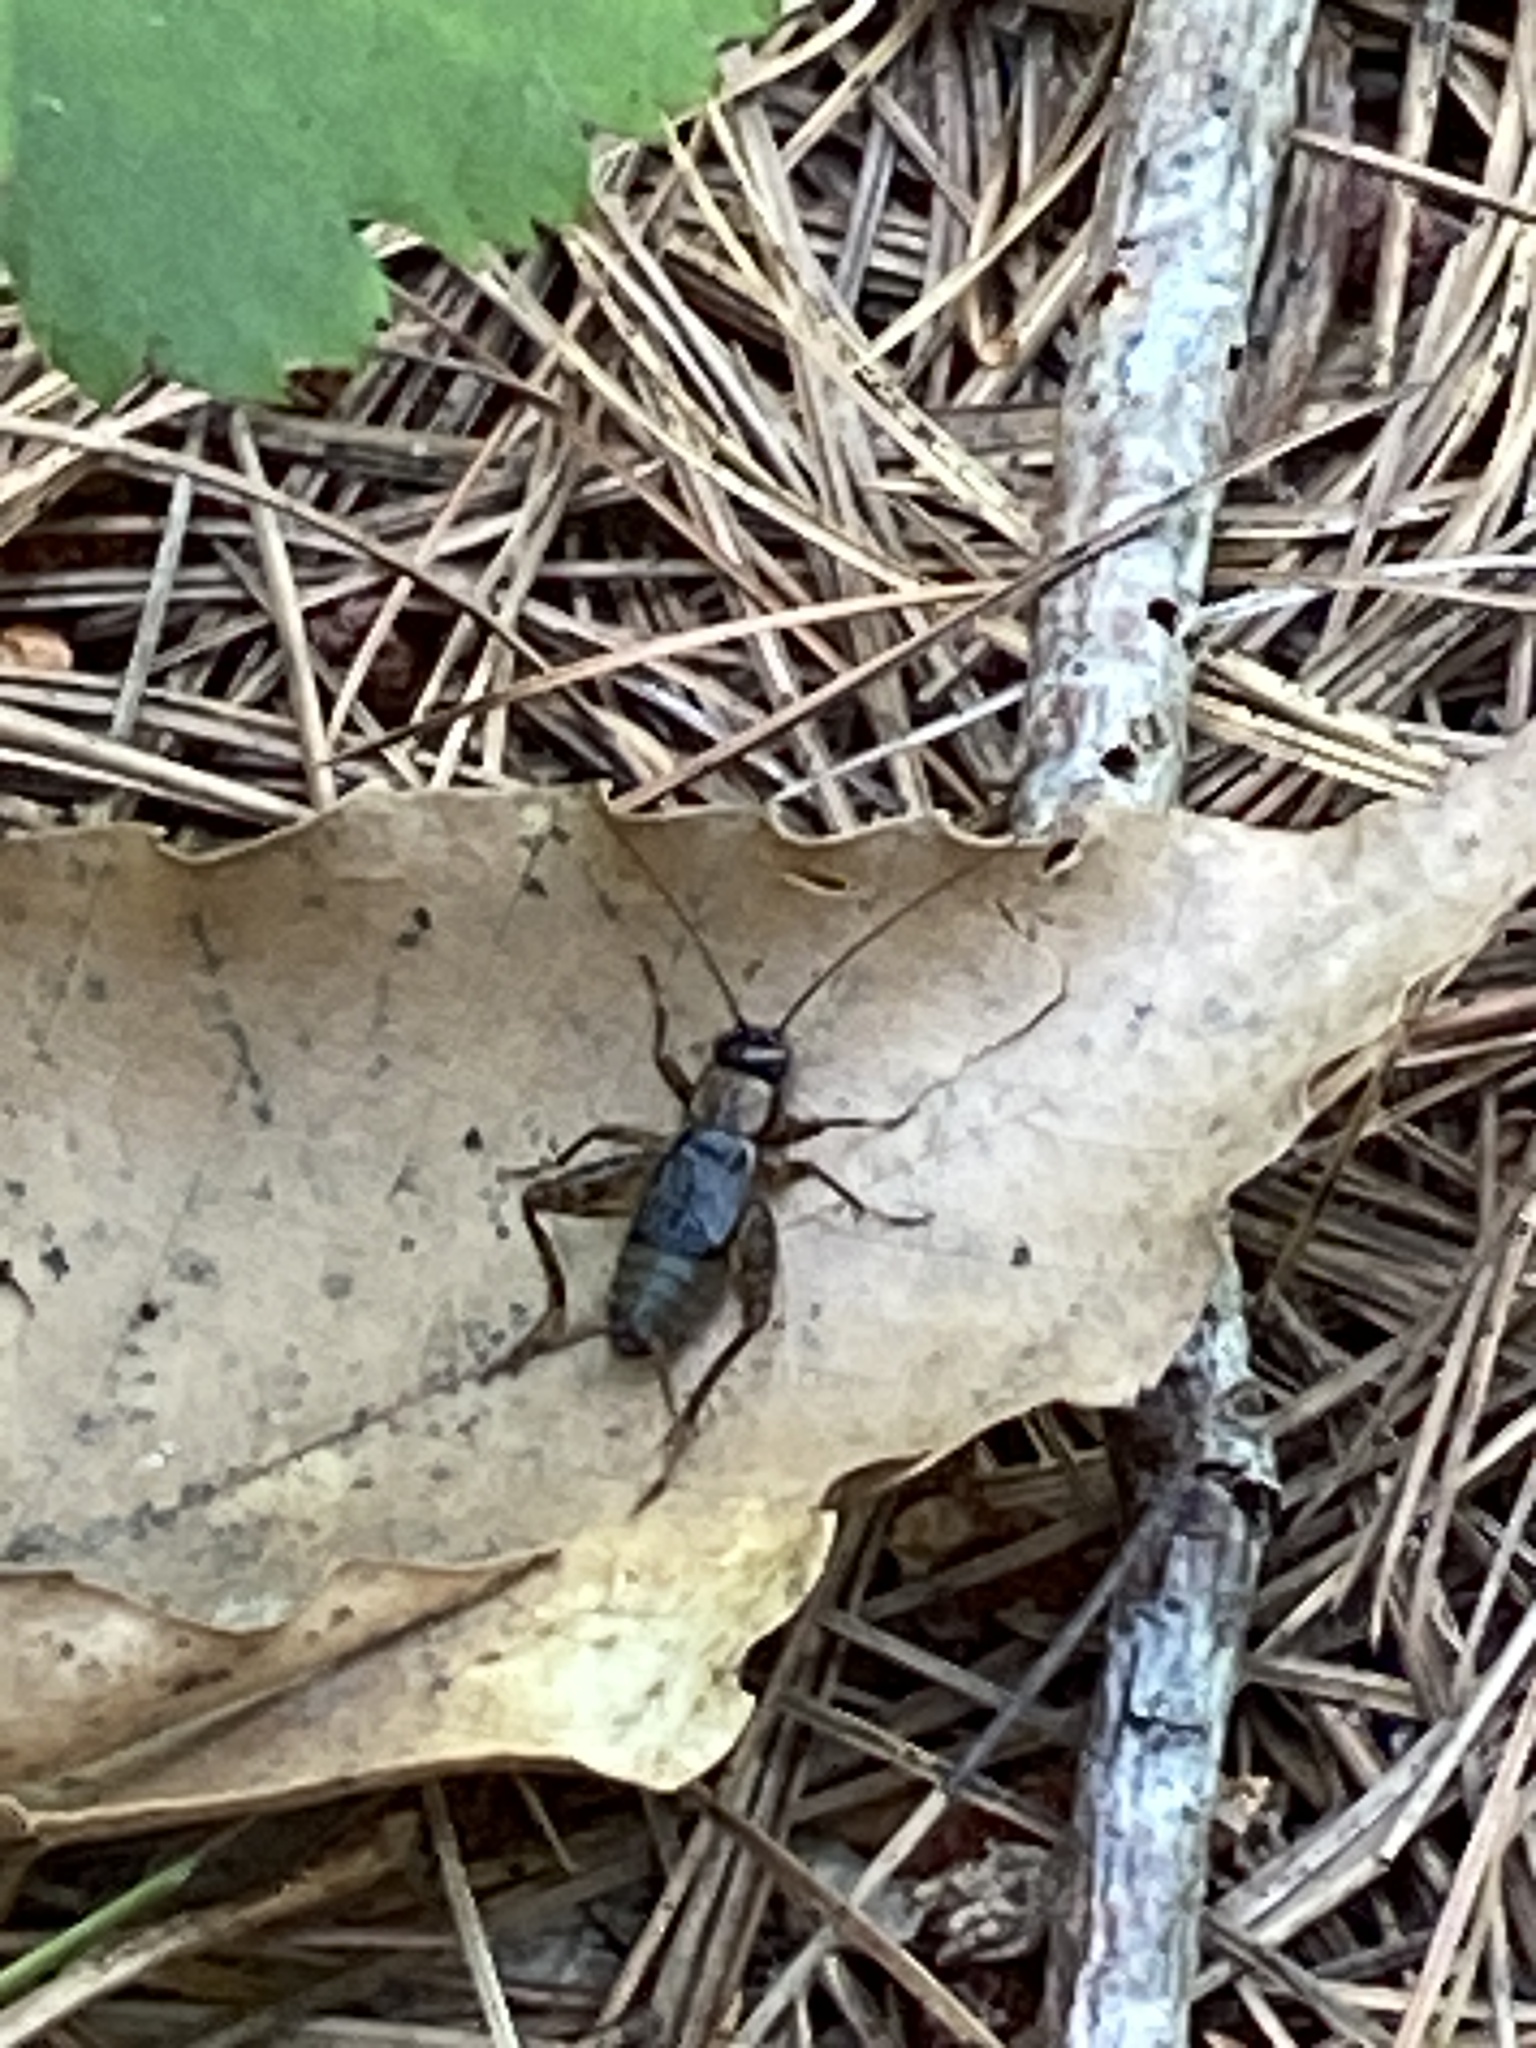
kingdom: Animalia
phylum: Arthropoda
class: Insecta
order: Orthoptera
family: Trigonidiidae
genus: Nemobius
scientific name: Nemobius sylvestris
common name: Wood-cricket
